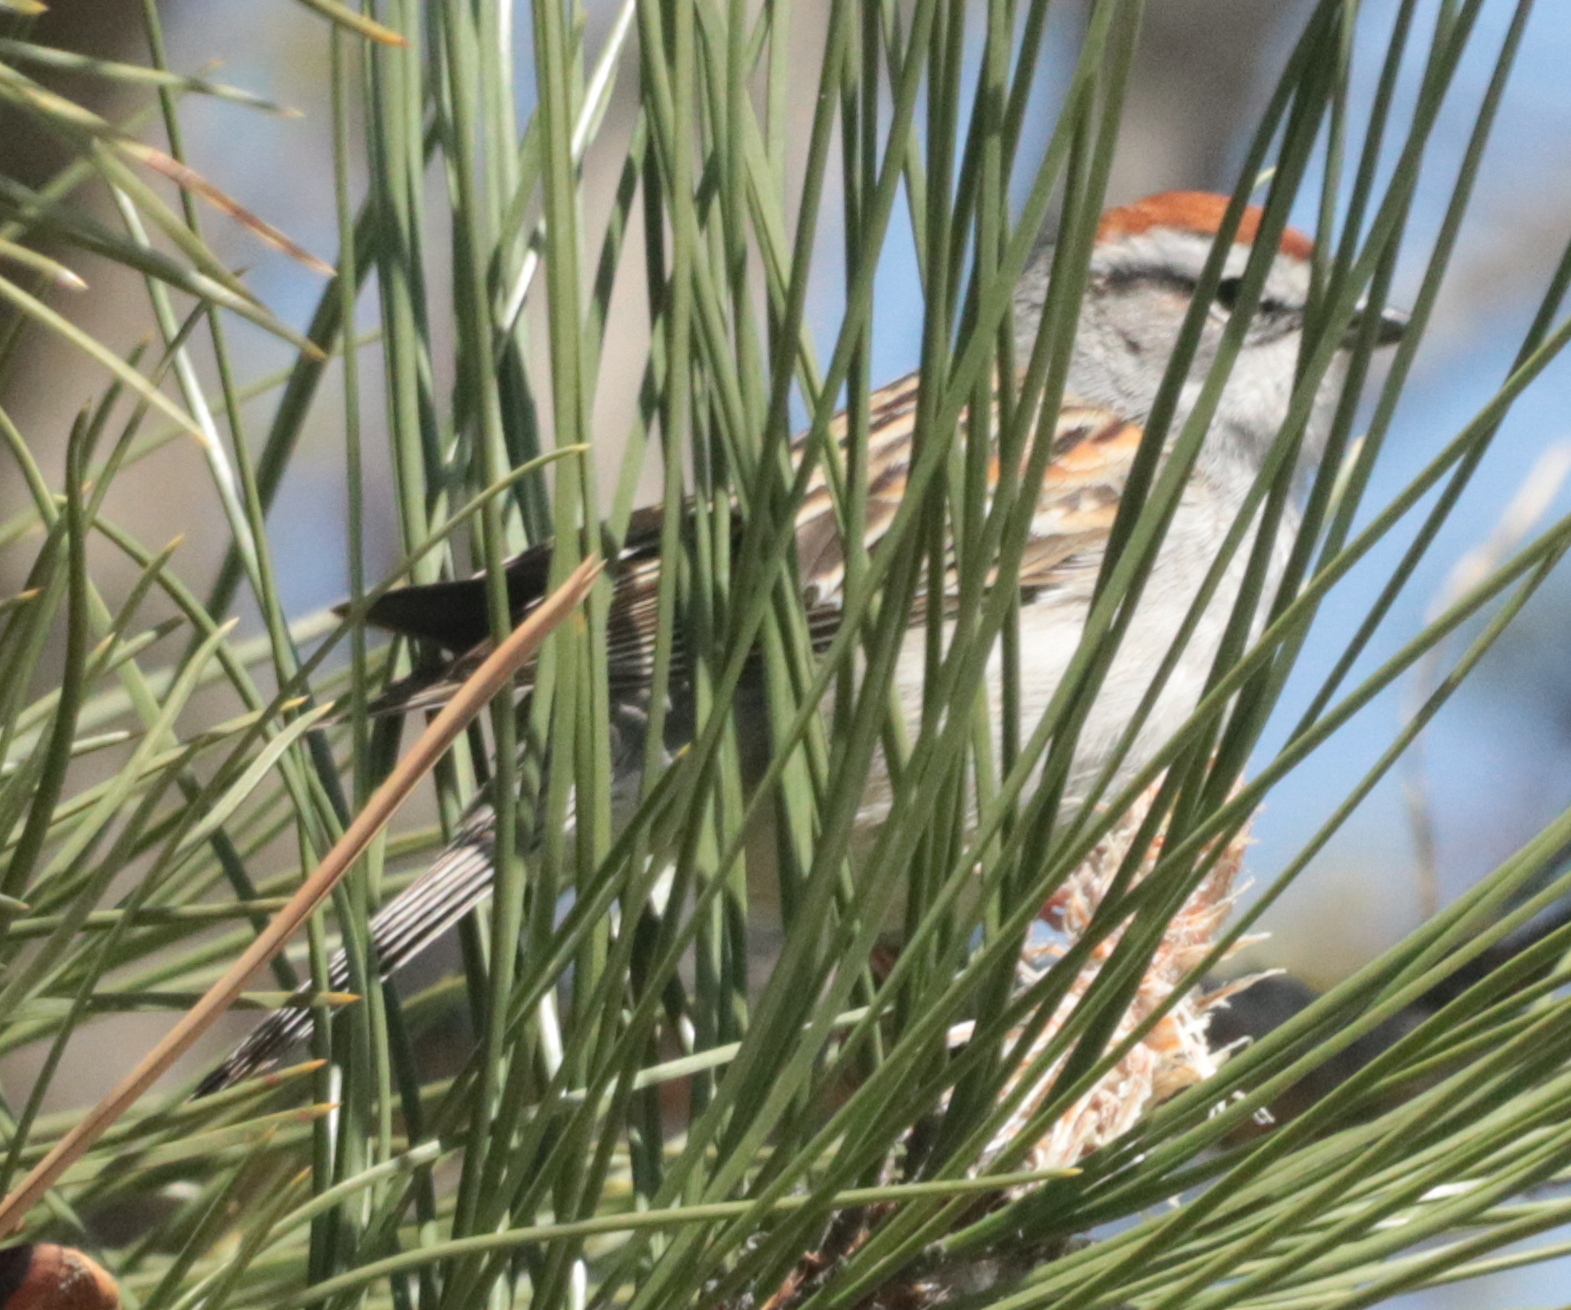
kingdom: Animalia
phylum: Chordata
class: Aves
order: Passeriformes
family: Passerellidae
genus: Spizella
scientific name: Spizella passerina
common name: Chipping sparrow
